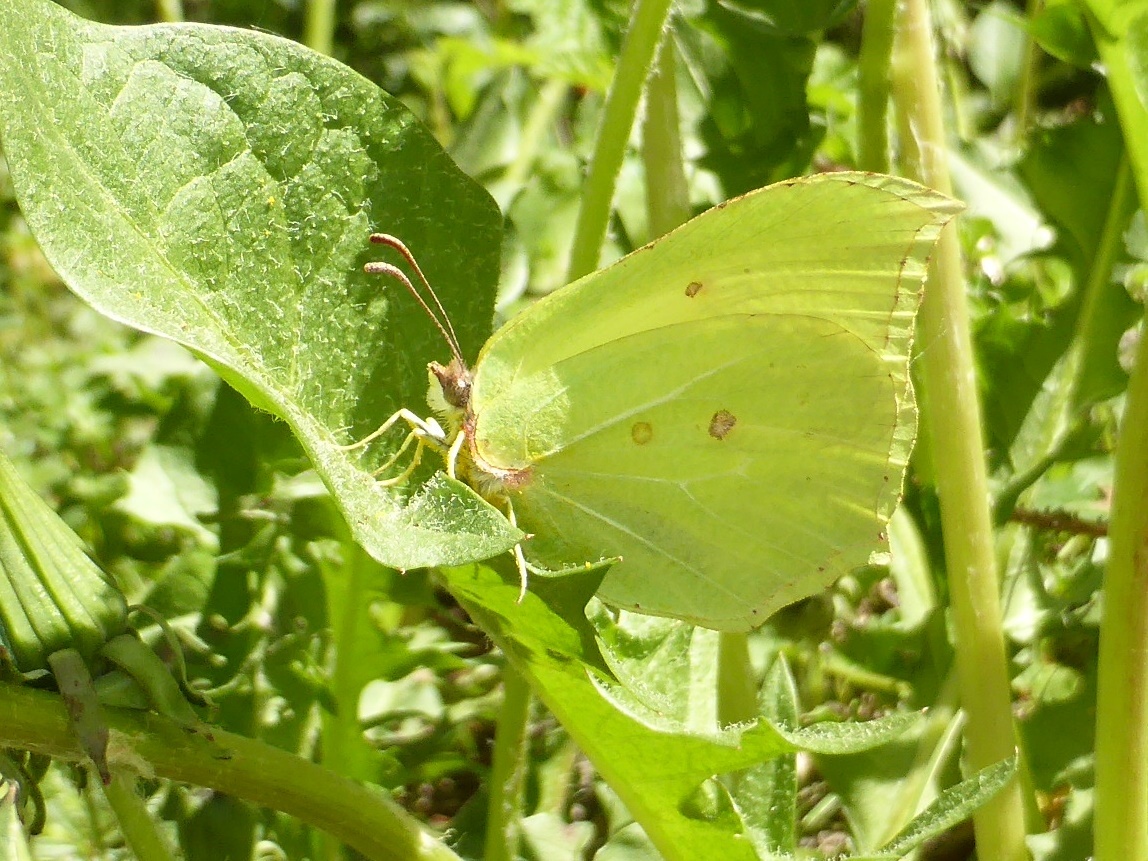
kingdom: Animalia
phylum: Arthropoda
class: Insecta
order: Lepidoptera
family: Pieridae
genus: Gonepteryx
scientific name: Gonepteryx rhamni
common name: Brimstone
